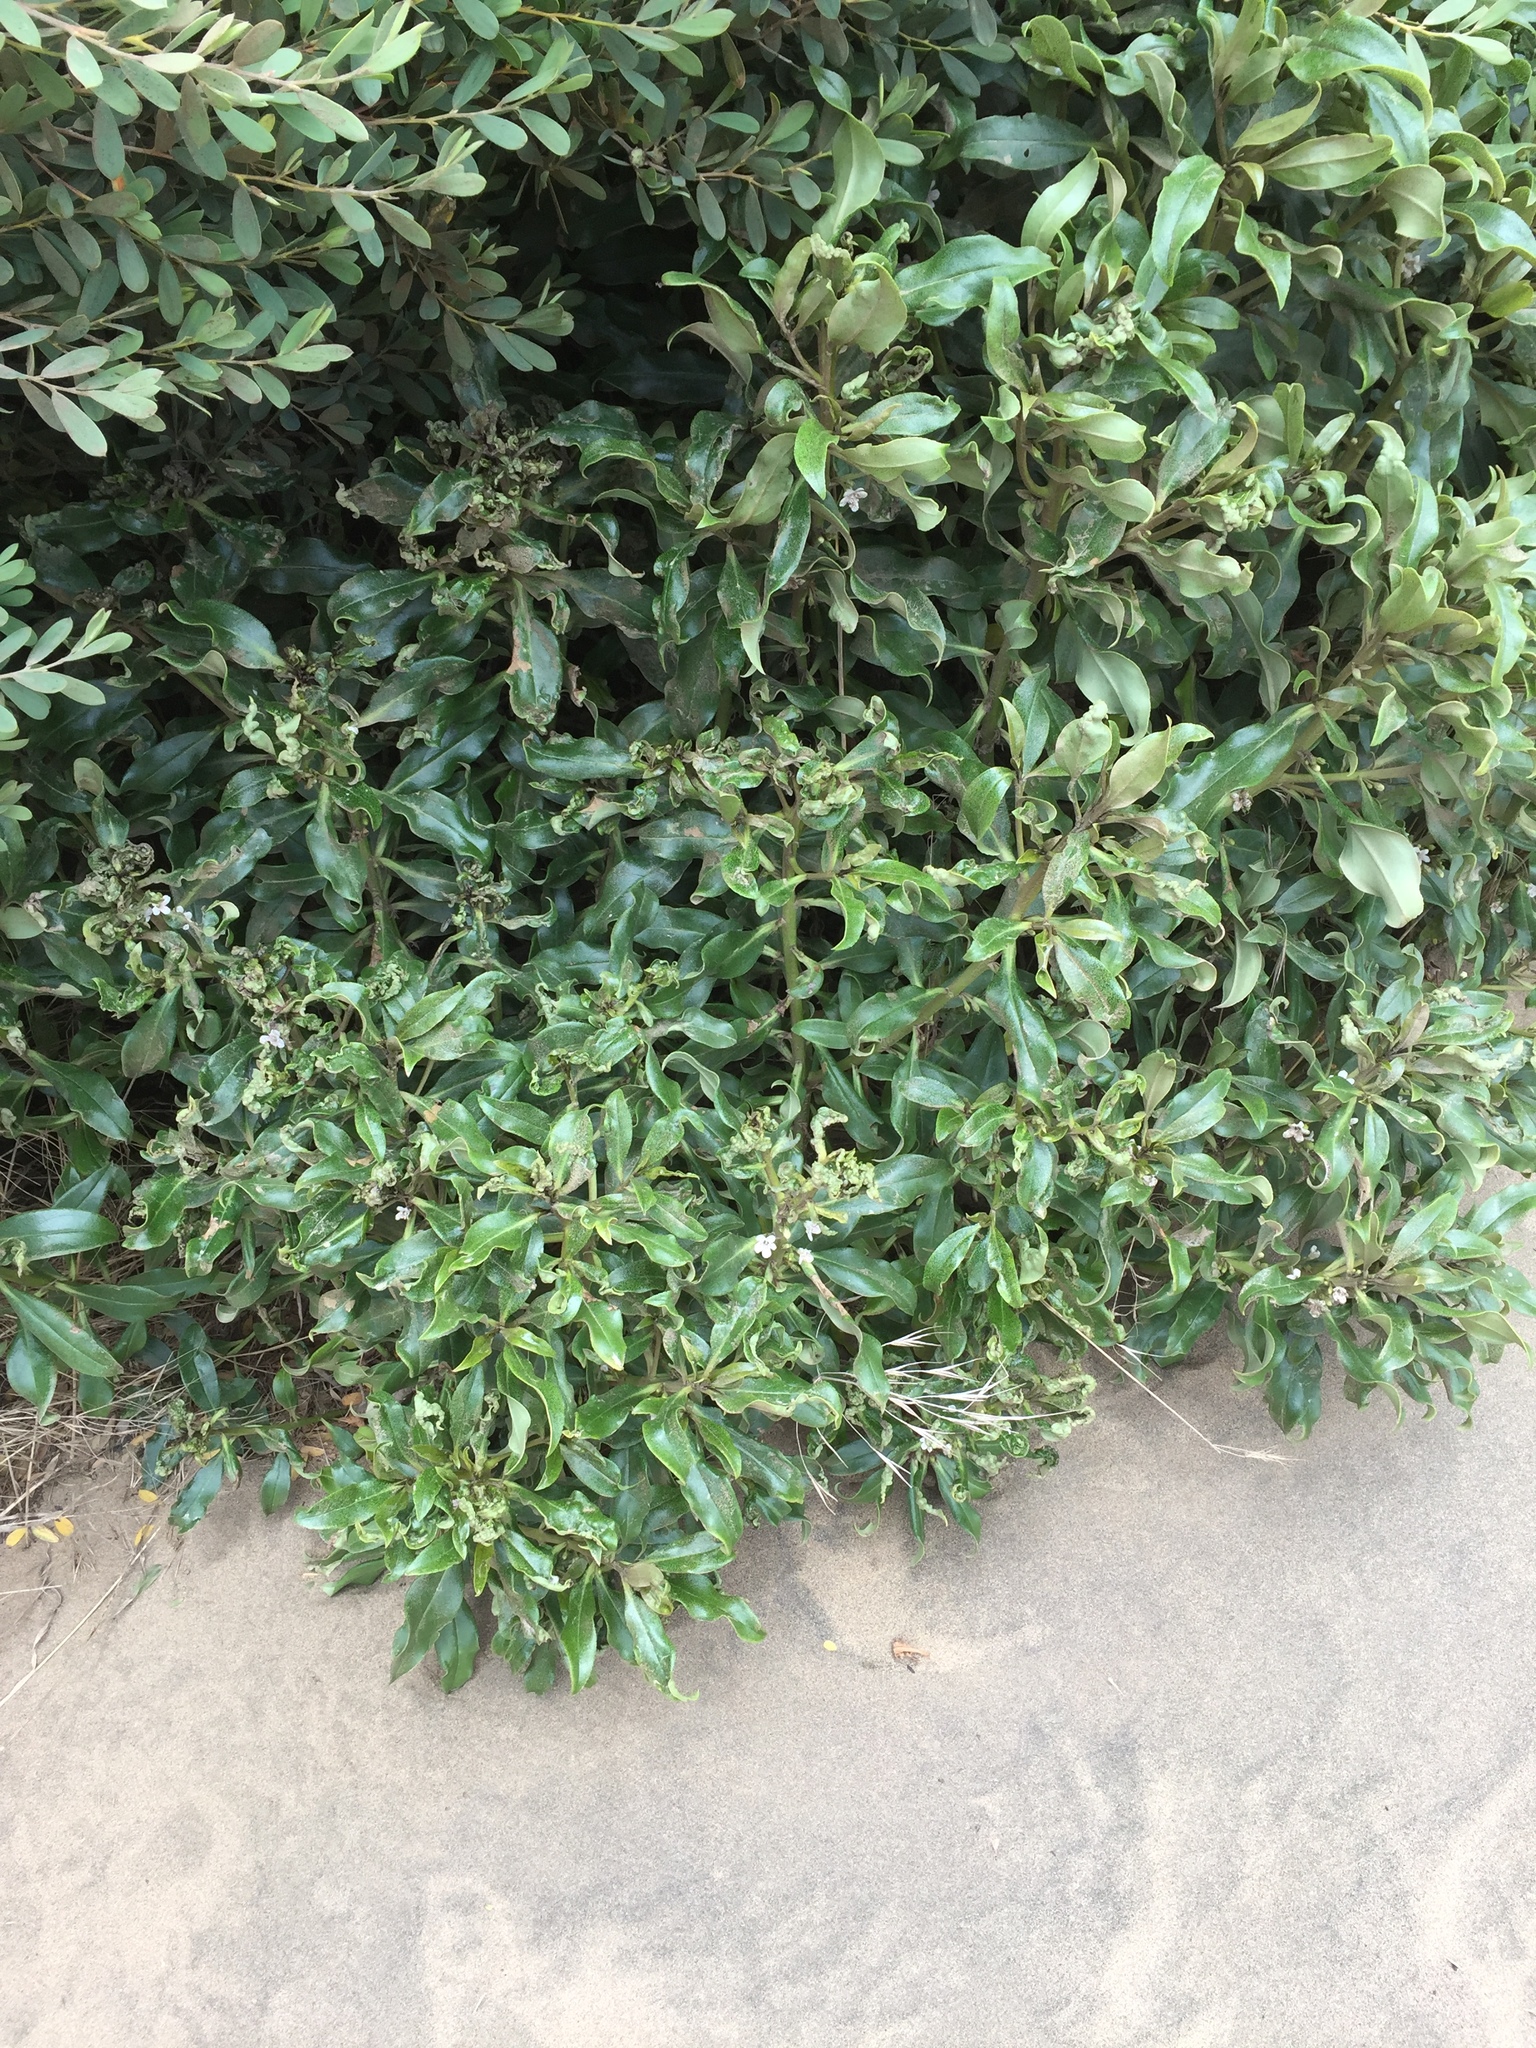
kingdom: Plantae
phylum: Tracheophyta
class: Magnoliopsida
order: Lamiales
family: Scrophulariaceae
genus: Myoporum
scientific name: Myoporum laetum
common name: Ngaio tree
